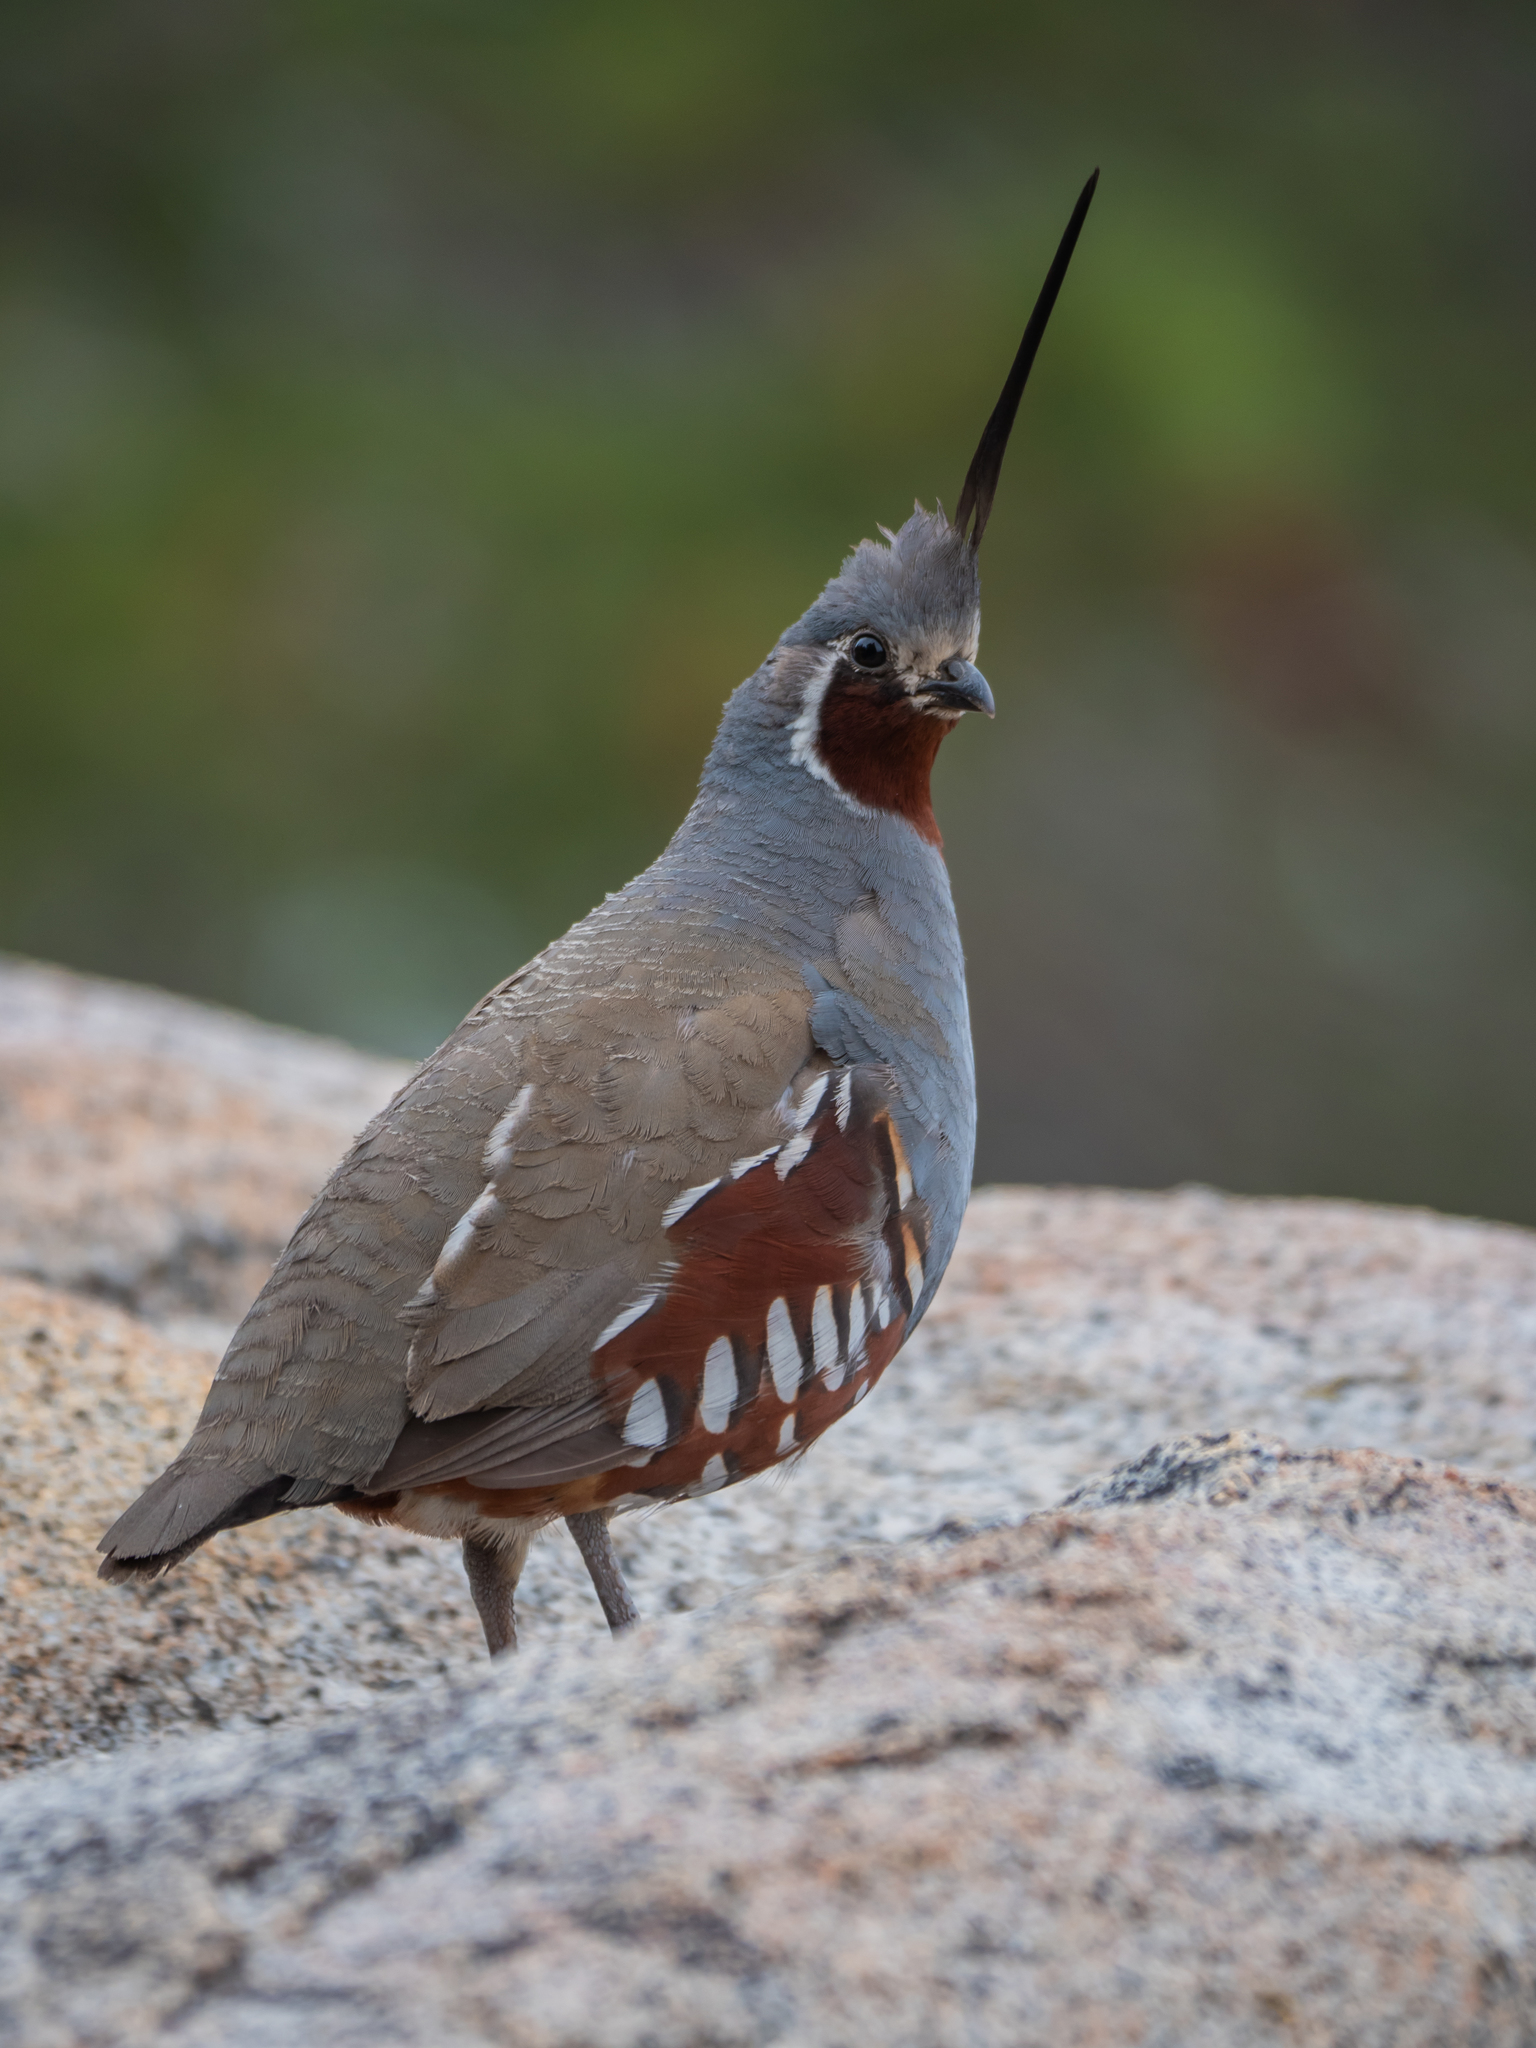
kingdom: Animalia
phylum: Chordata
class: Aves
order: Galliformes
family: Odontophoridae
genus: Oreortyx
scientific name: Oreortyx pictus
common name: Mountain quail
